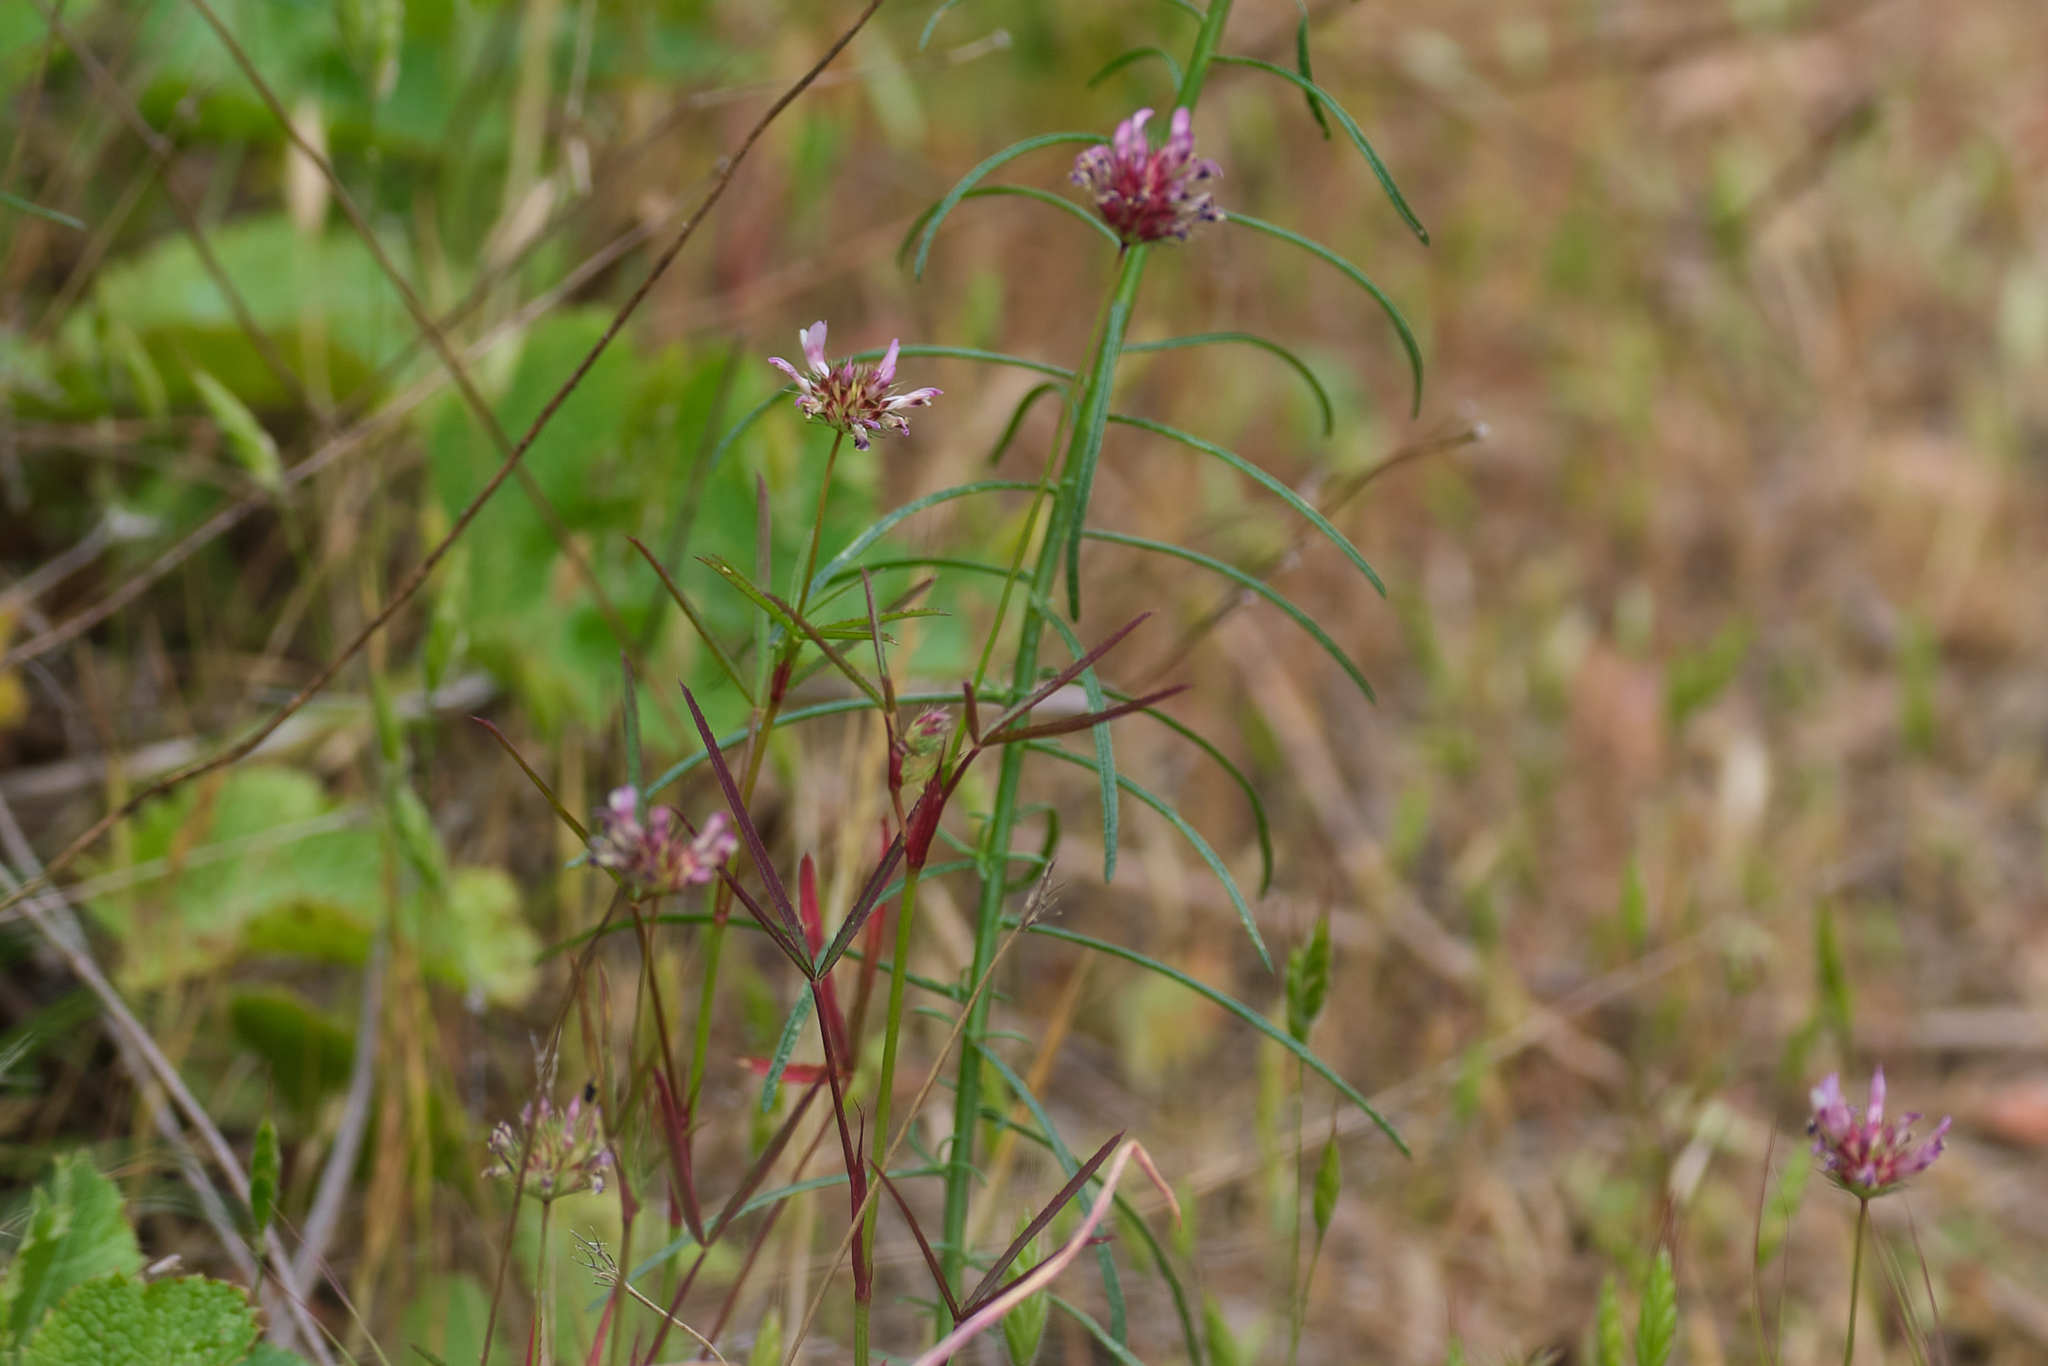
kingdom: Plantae
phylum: Tracheophyta
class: Magnoliopsida
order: Fabales
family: Fabaceae
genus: Trifolium
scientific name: Trifolium willdenovii
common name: Tomcat clover
